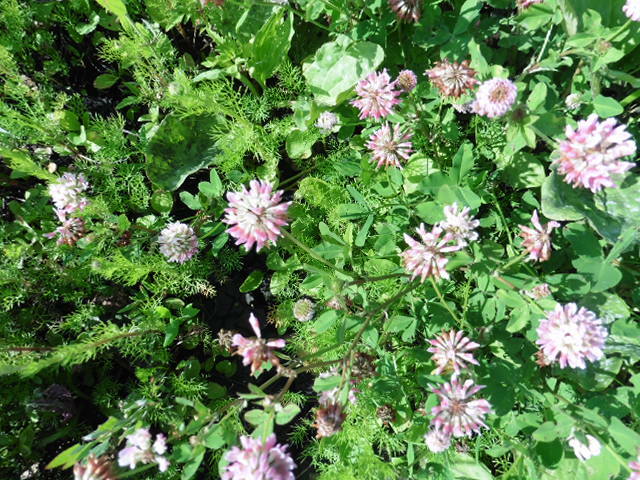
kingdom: Plantae
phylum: Tracheophyta
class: Magnoliopsida
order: Fabales
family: Fabaceae
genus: Trifolium
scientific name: Trifolium hybridum
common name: Alsike clover
